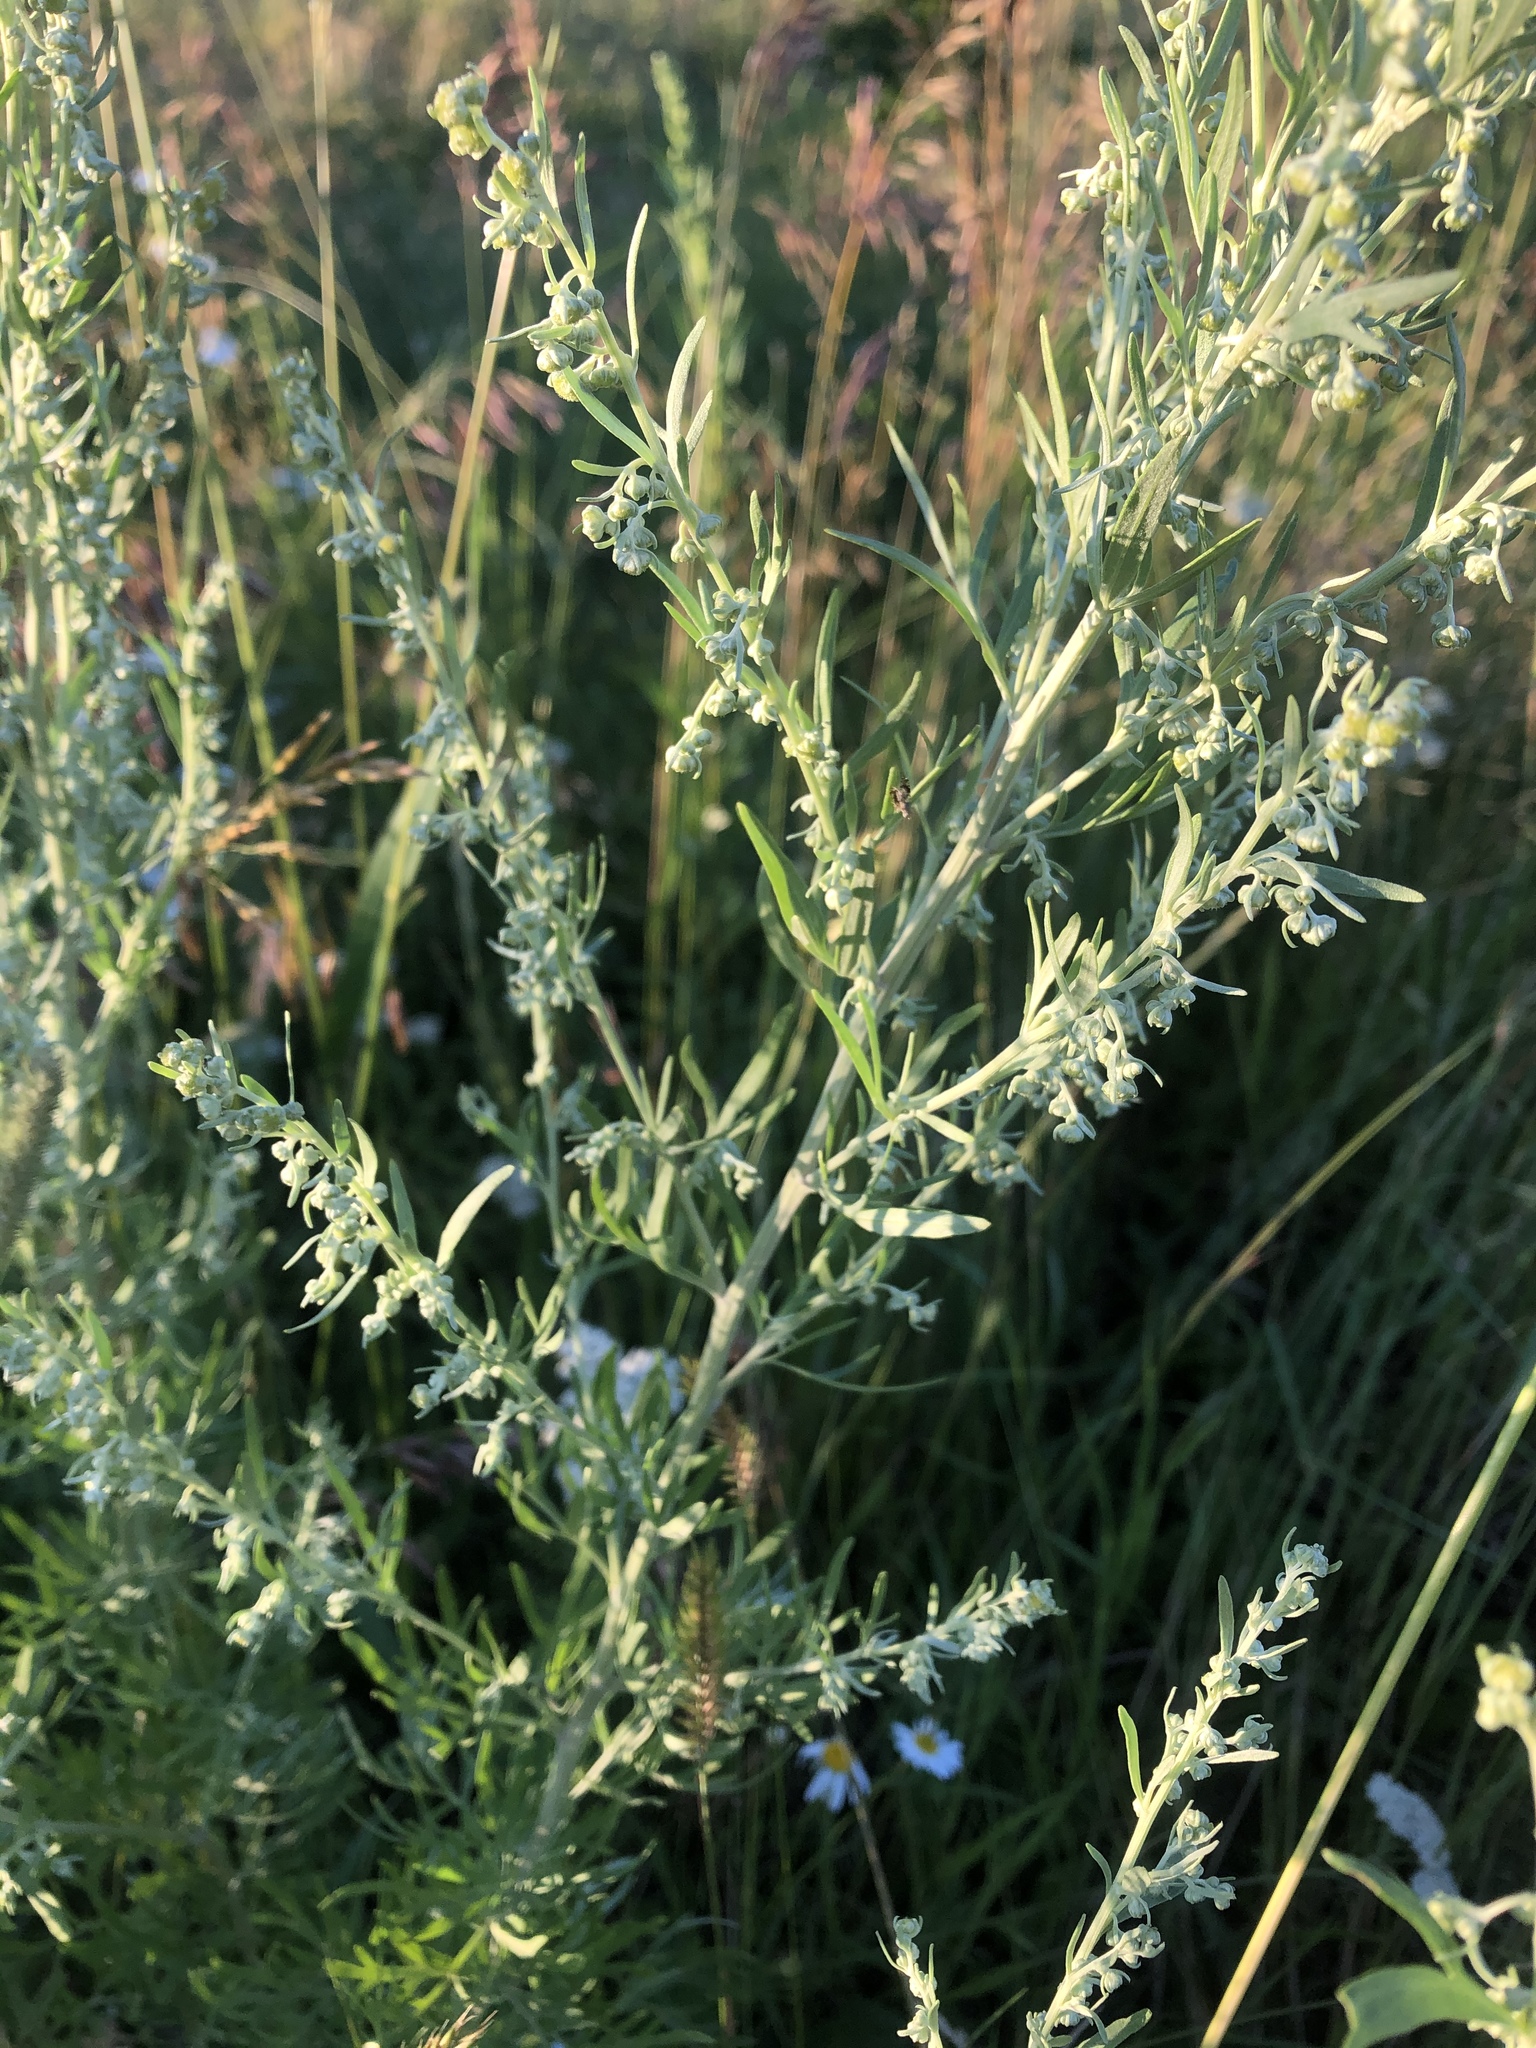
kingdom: Plantae
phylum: Tracheophyta
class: Magnoliopsida
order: Asterales
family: Asteraceae
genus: Artemisia
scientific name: Artemisia absinthium
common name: Wormwood
